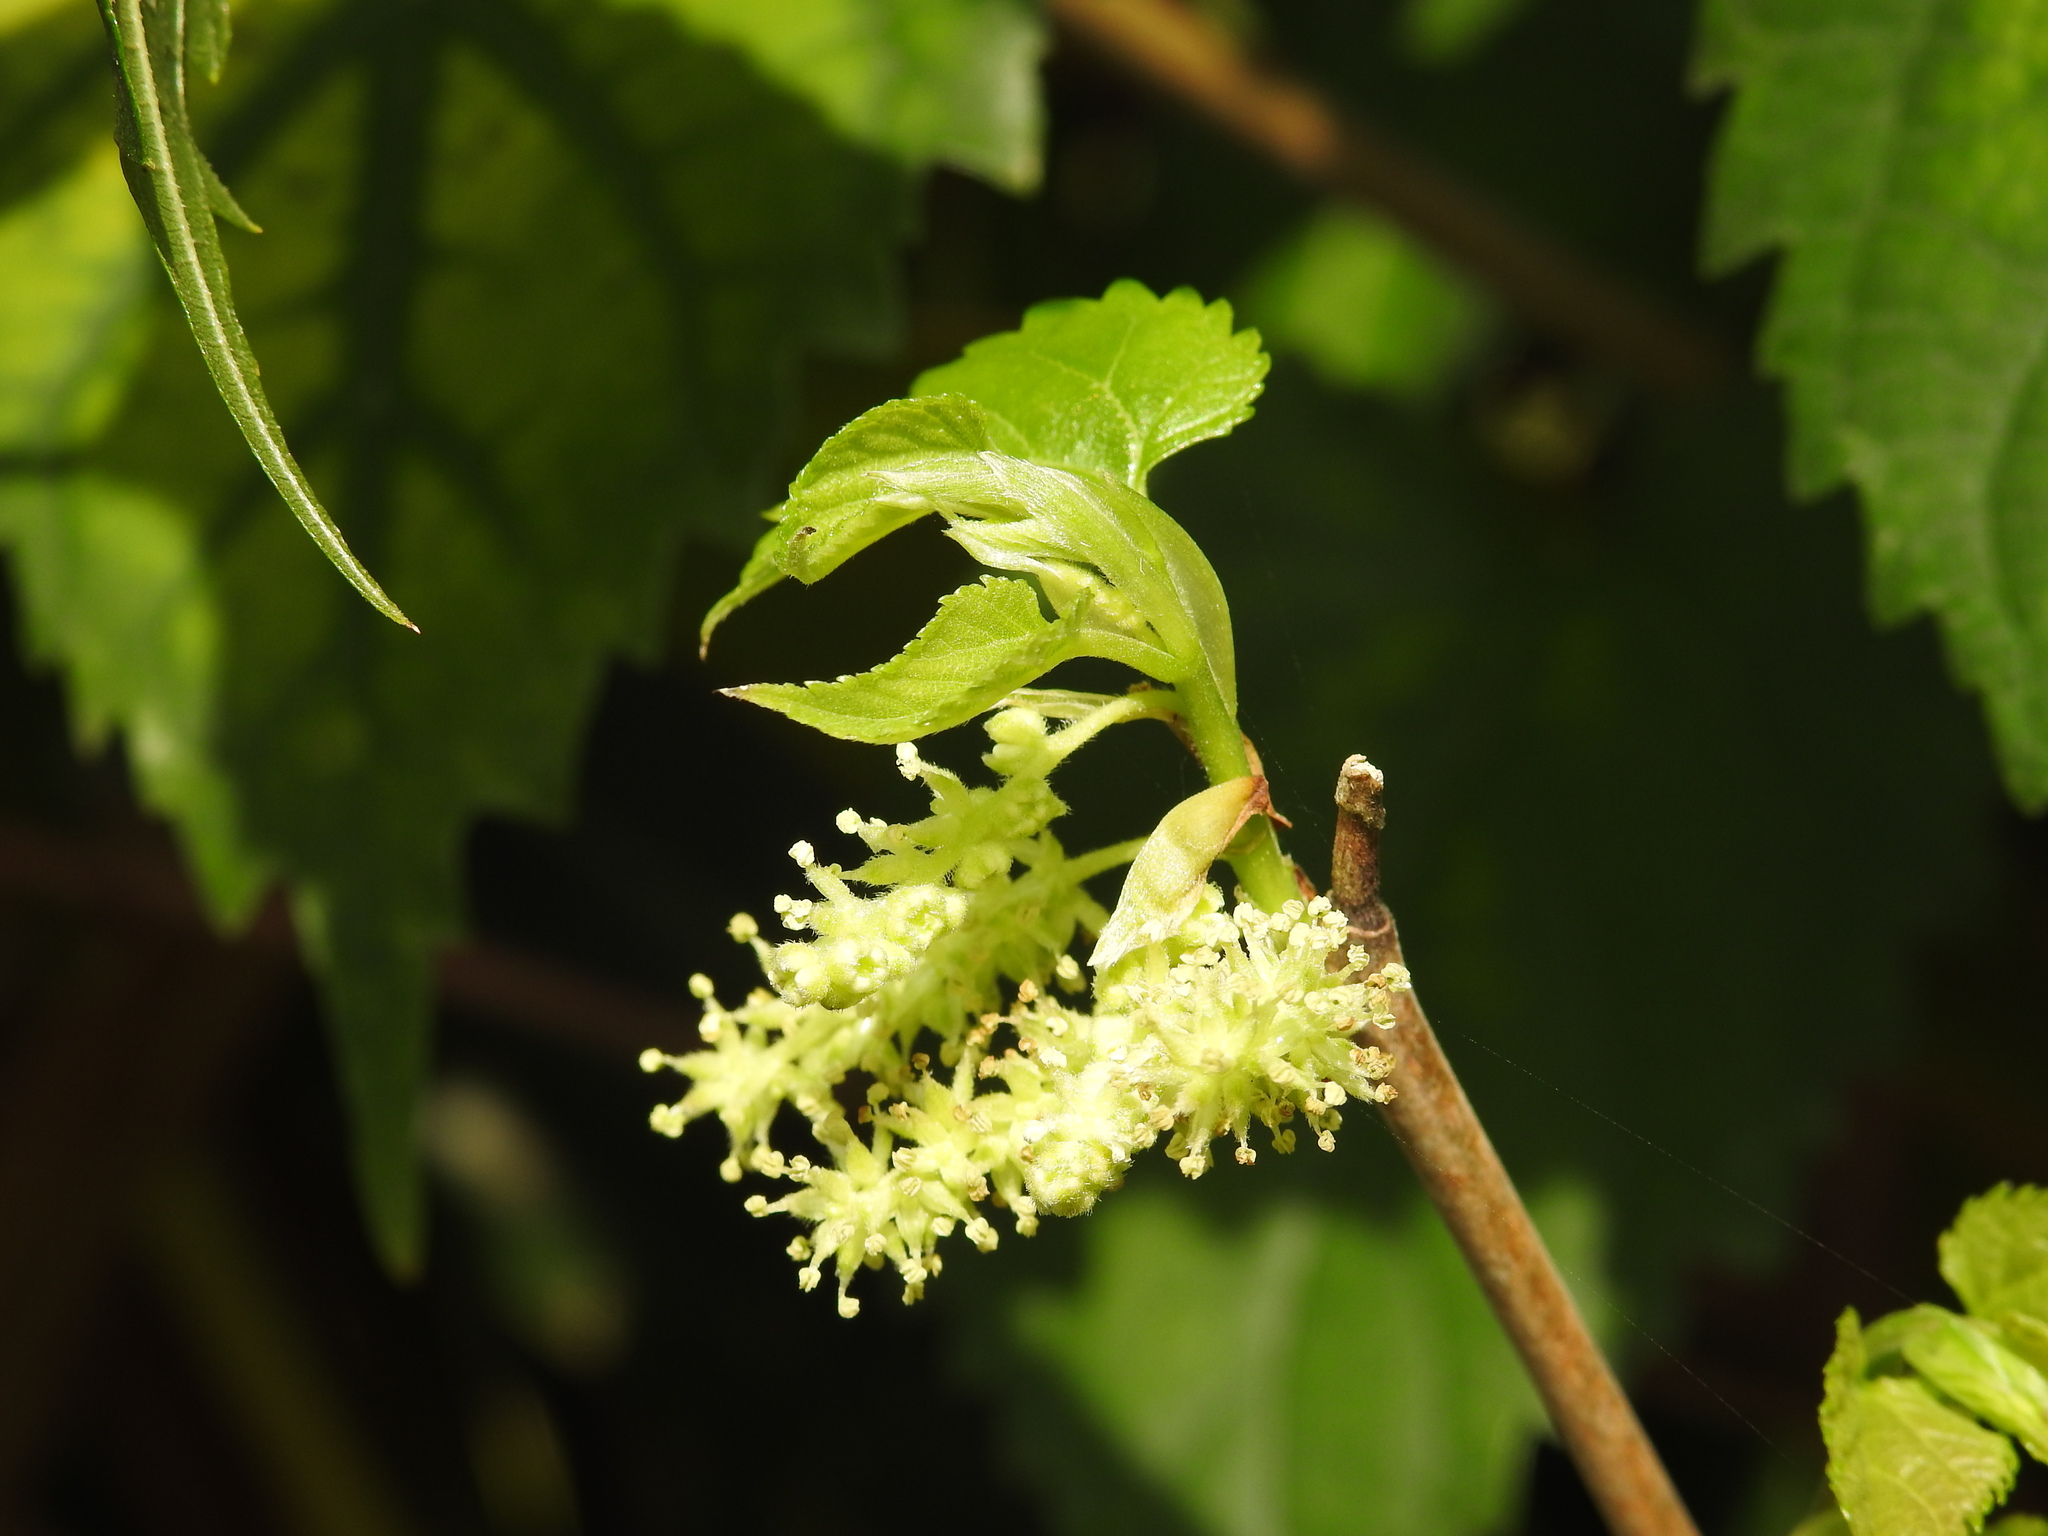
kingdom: Plantae
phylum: Tracheophyta
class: Magnoliopsida
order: Rosales
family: Moraceae
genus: Morus
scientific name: Morus indica
